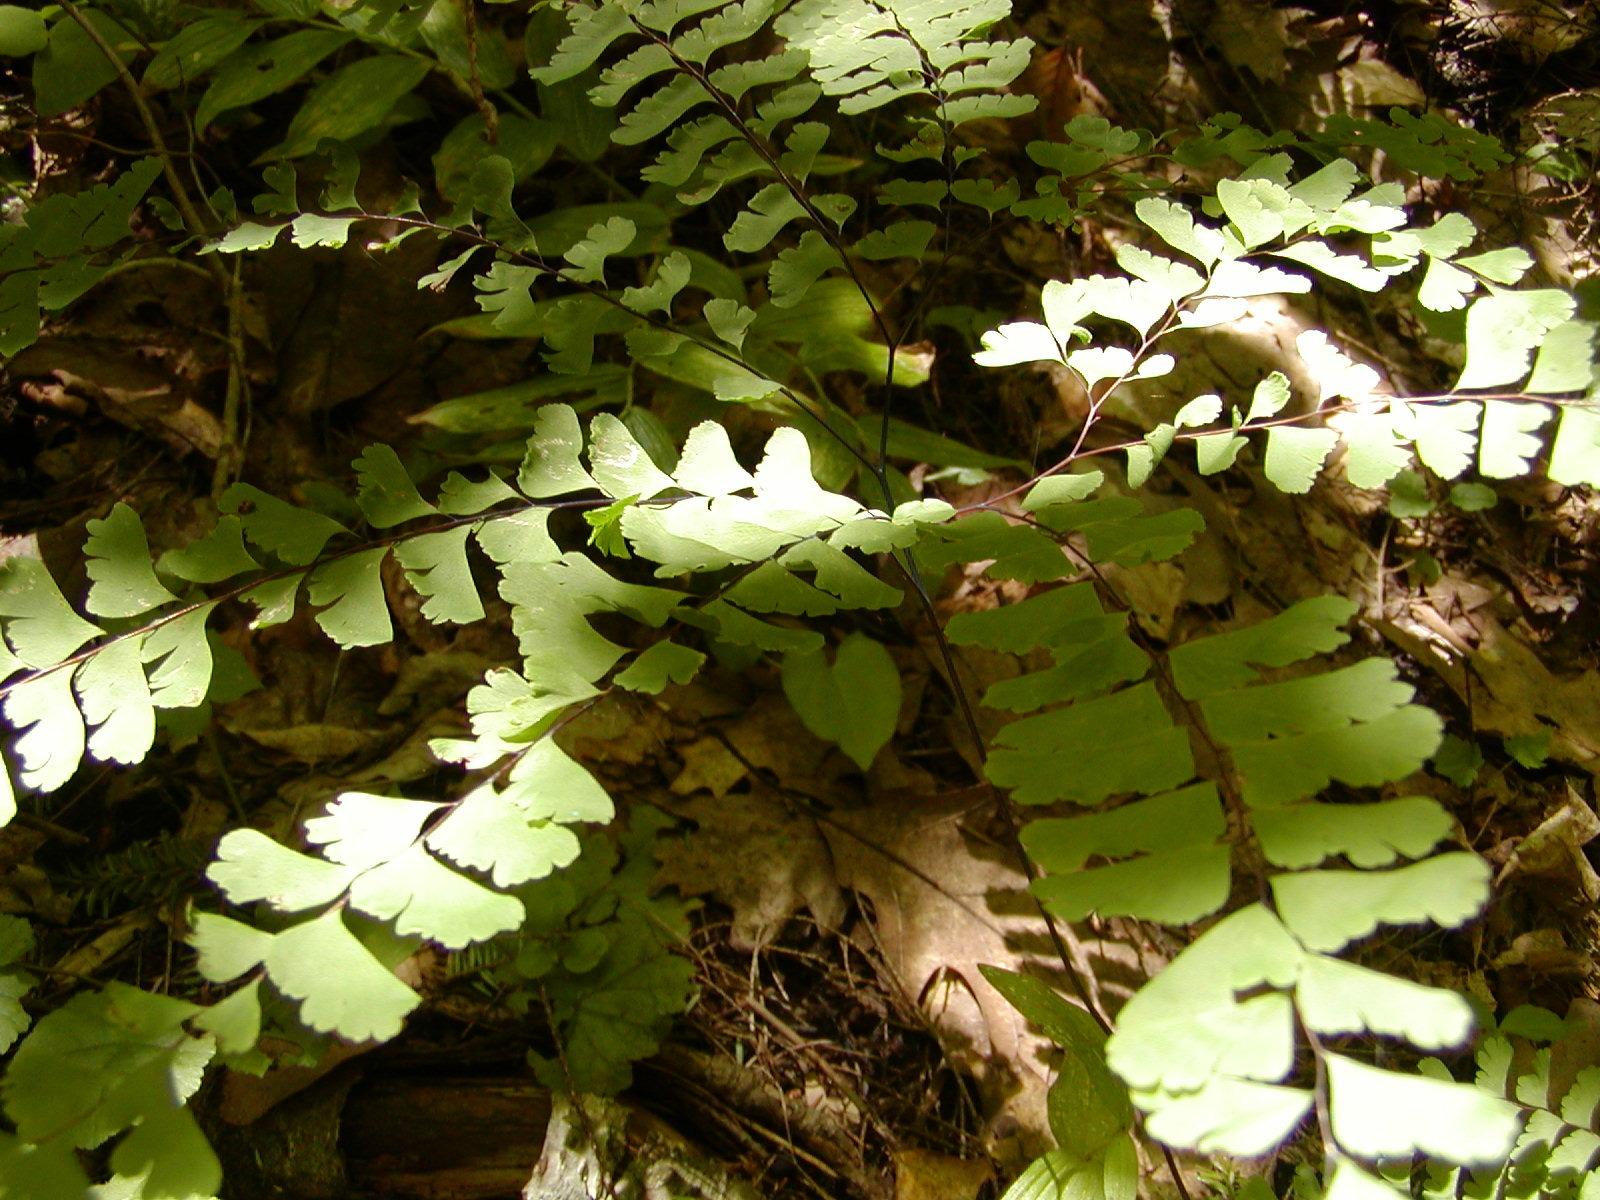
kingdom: Plantae
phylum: Tracheophyta
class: Polypodiopsida
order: Polypodiales
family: Pteridaceae
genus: Adiantum
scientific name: Adiantum pedatum
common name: Five-finger fern
